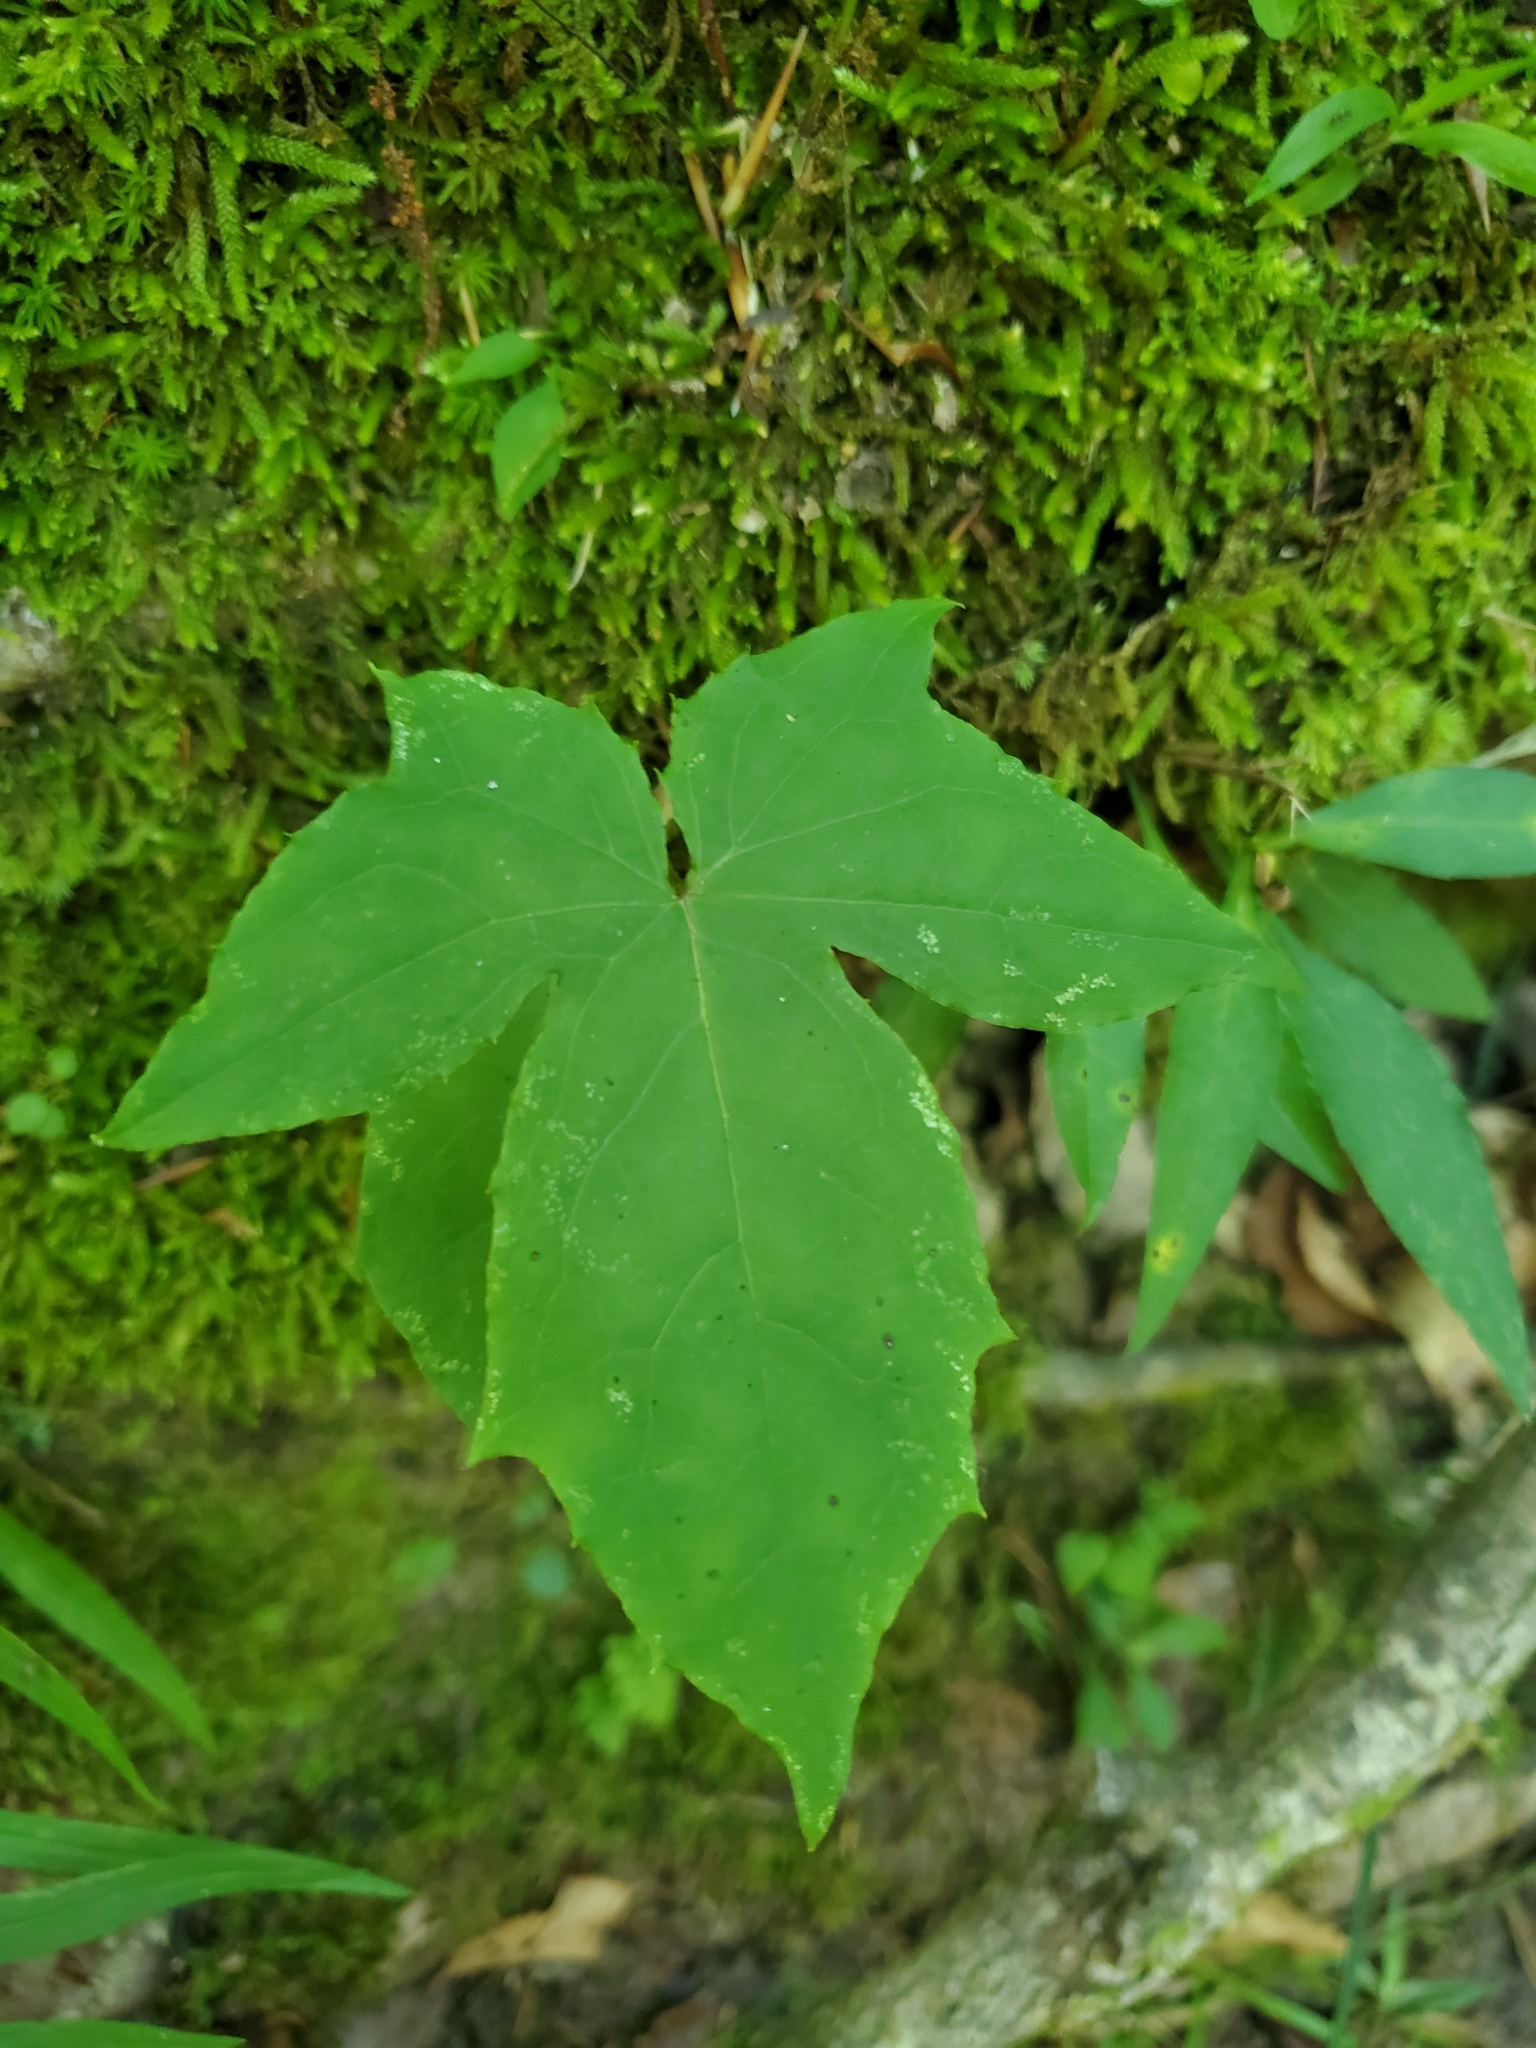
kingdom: Plantae
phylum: Tracheophyta
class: Magnoliopsida
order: Asterales
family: Asteraceae
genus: Nabalus
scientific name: Nabalus altissima
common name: Tall rattlesnakeroot
